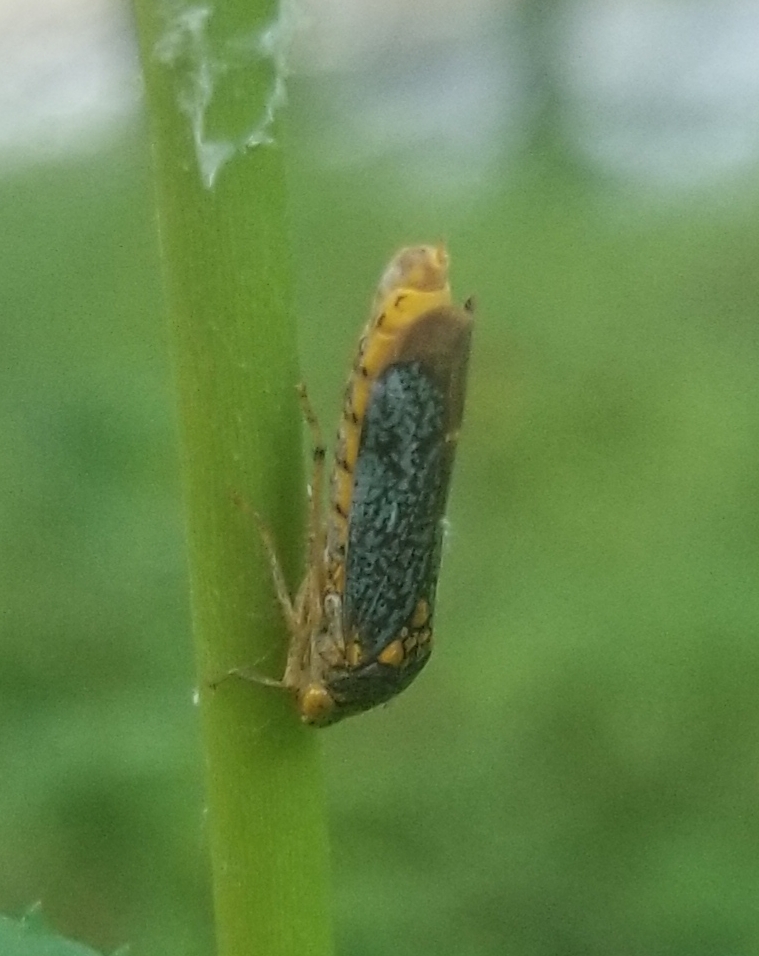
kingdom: Animalia
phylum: Arthropoda
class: Insecta
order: Hemiptera
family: Cicadellidae
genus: Oncometopia
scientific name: Oncometopia orbona
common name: Broad-headed sharpshooter
